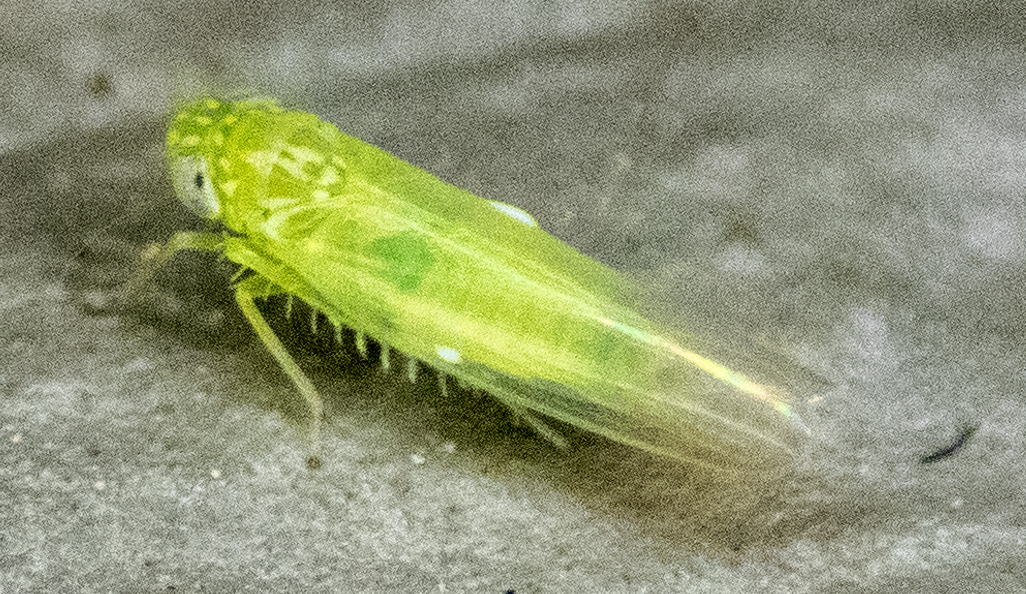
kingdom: Animalia
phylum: Arthropoda
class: Insecta
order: Hemiptera
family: Cicadellidae
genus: Empoasca
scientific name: Empoasca fabae
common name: Potato leafhopper
